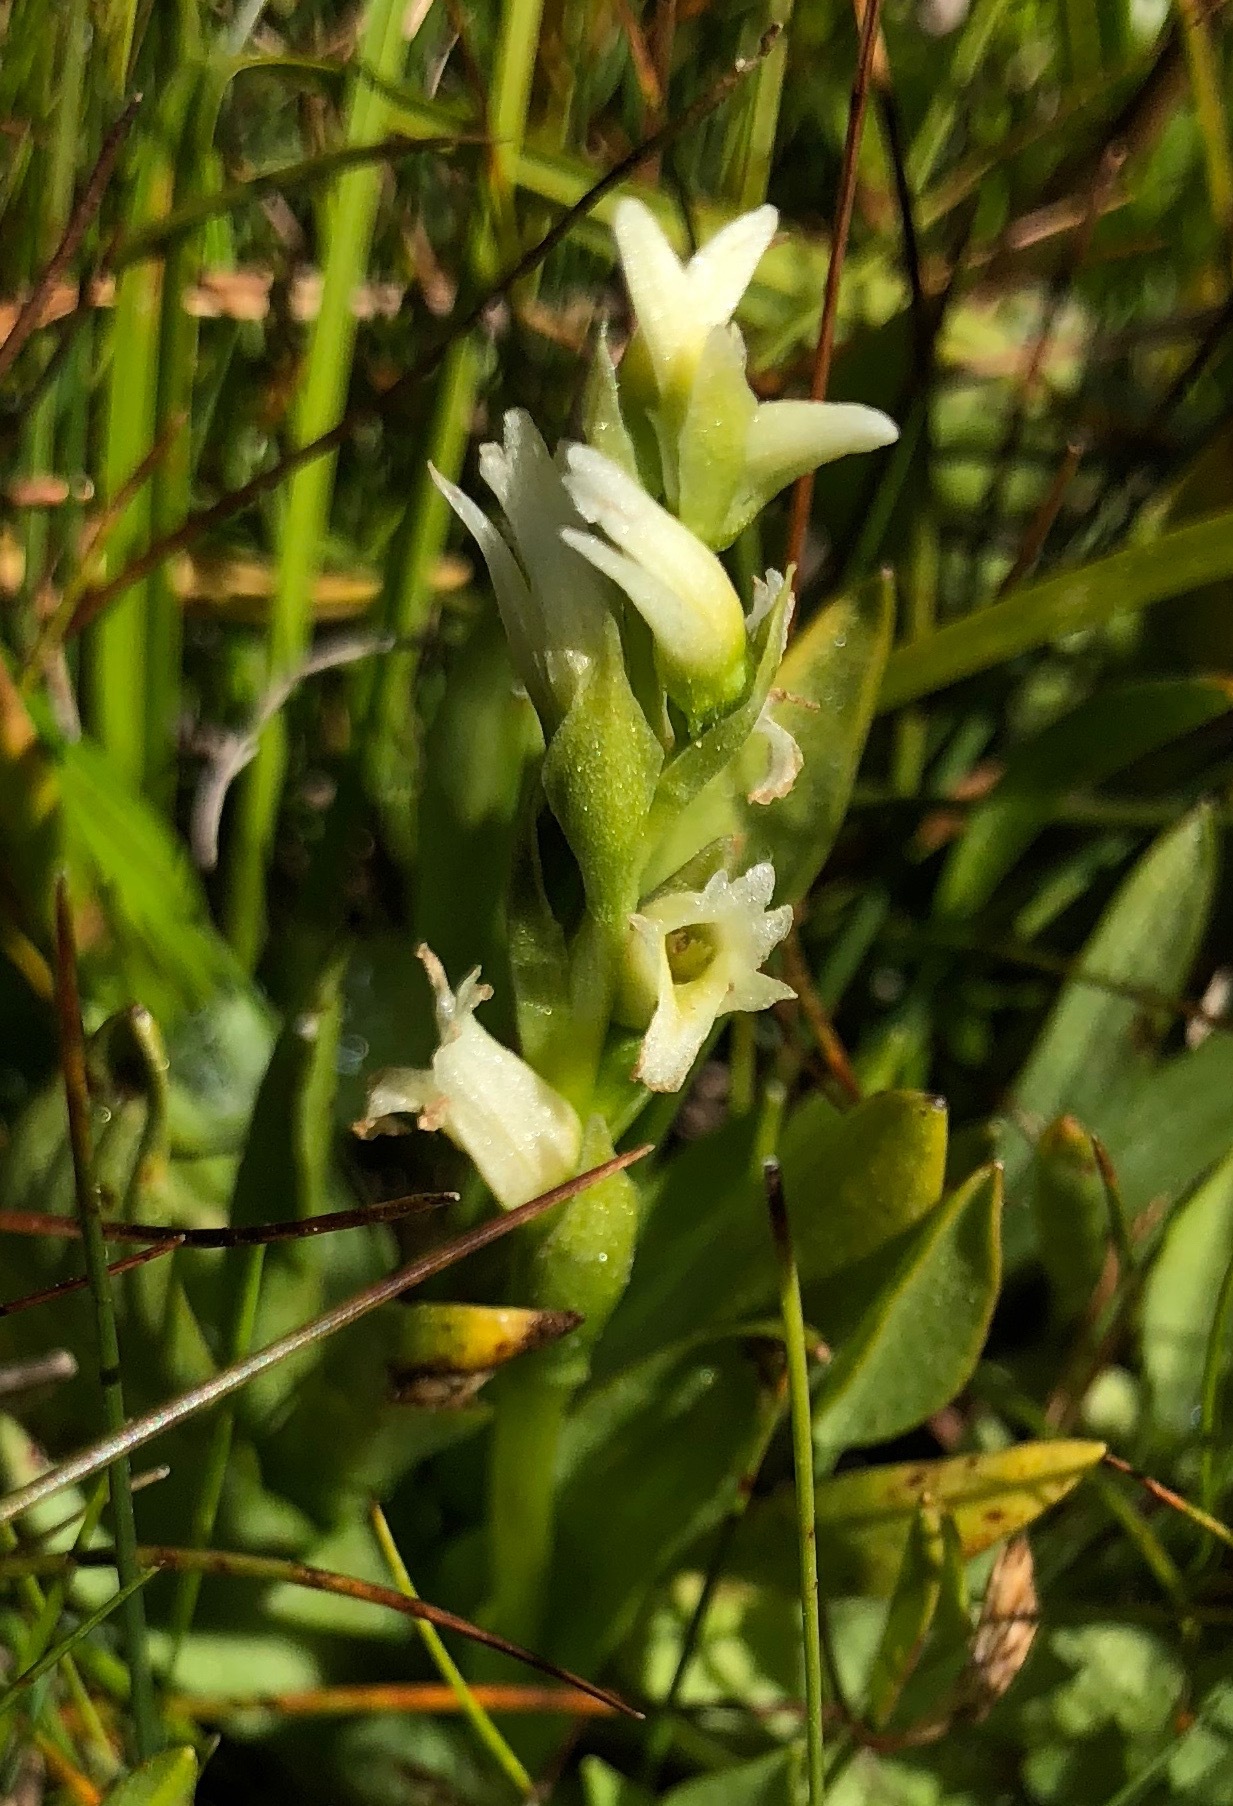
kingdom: Plantae
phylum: Tracheophyta
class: Liliopsida
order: Asparagales
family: Orchidaceae
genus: Spiranthes
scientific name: Spiranthes stellata
